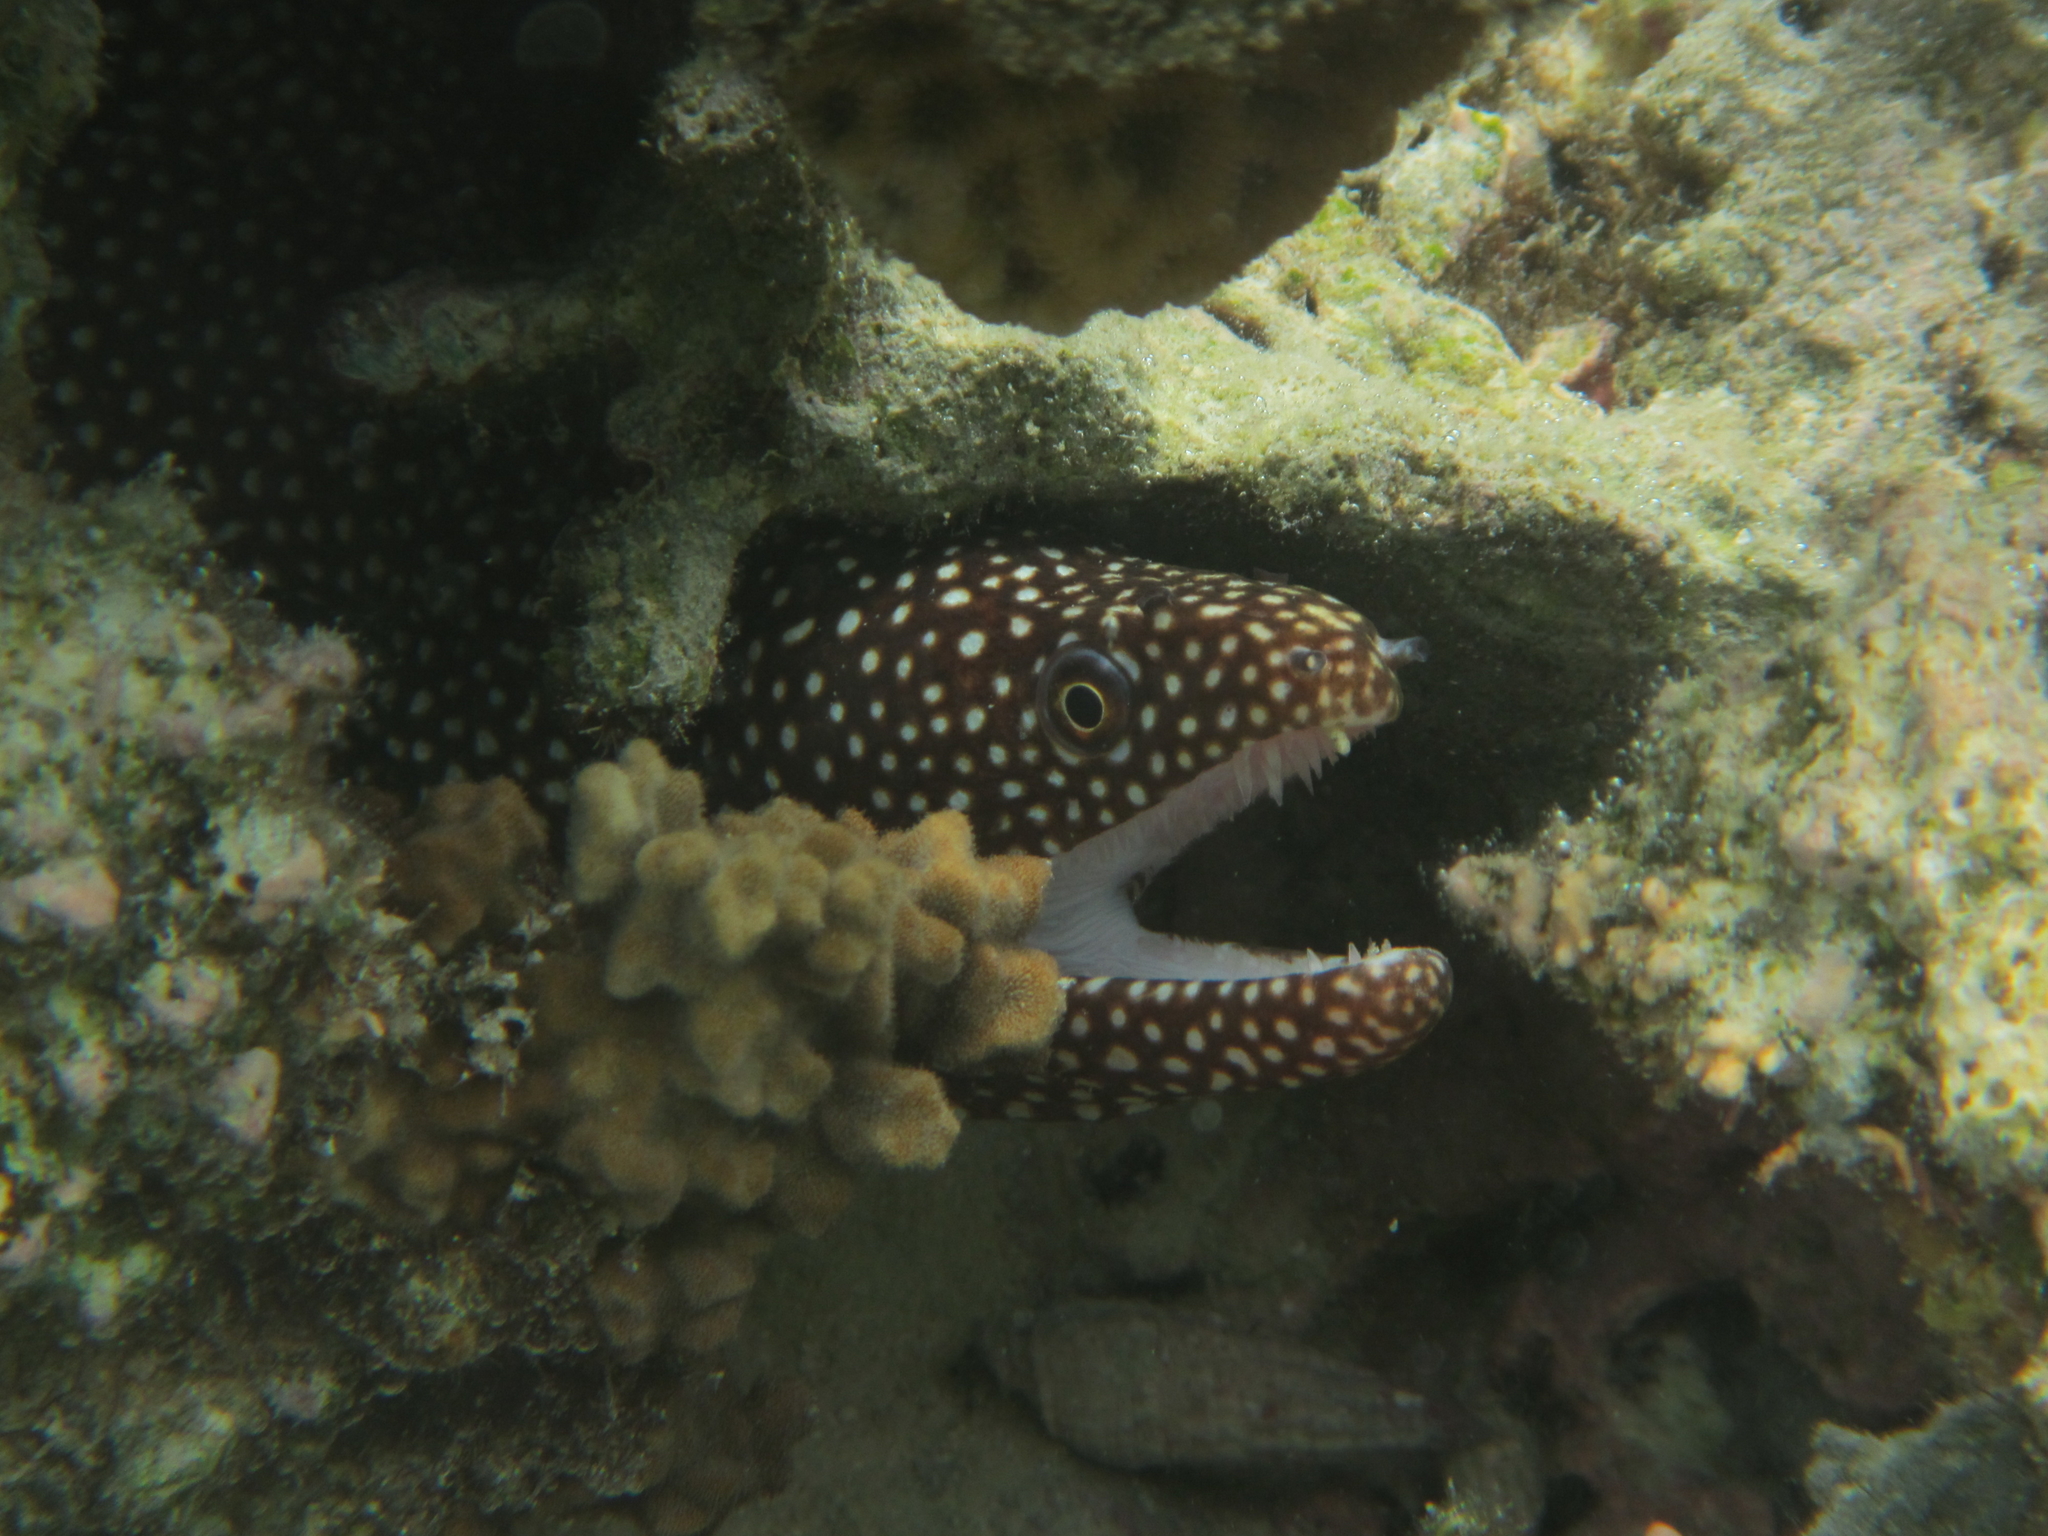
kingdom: Animalia
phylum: Chordata
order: Anguilliformes
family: Muraenidae
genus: Gymnothorax
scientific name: Gymnothorax meleagris
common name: Guineafowl moray
